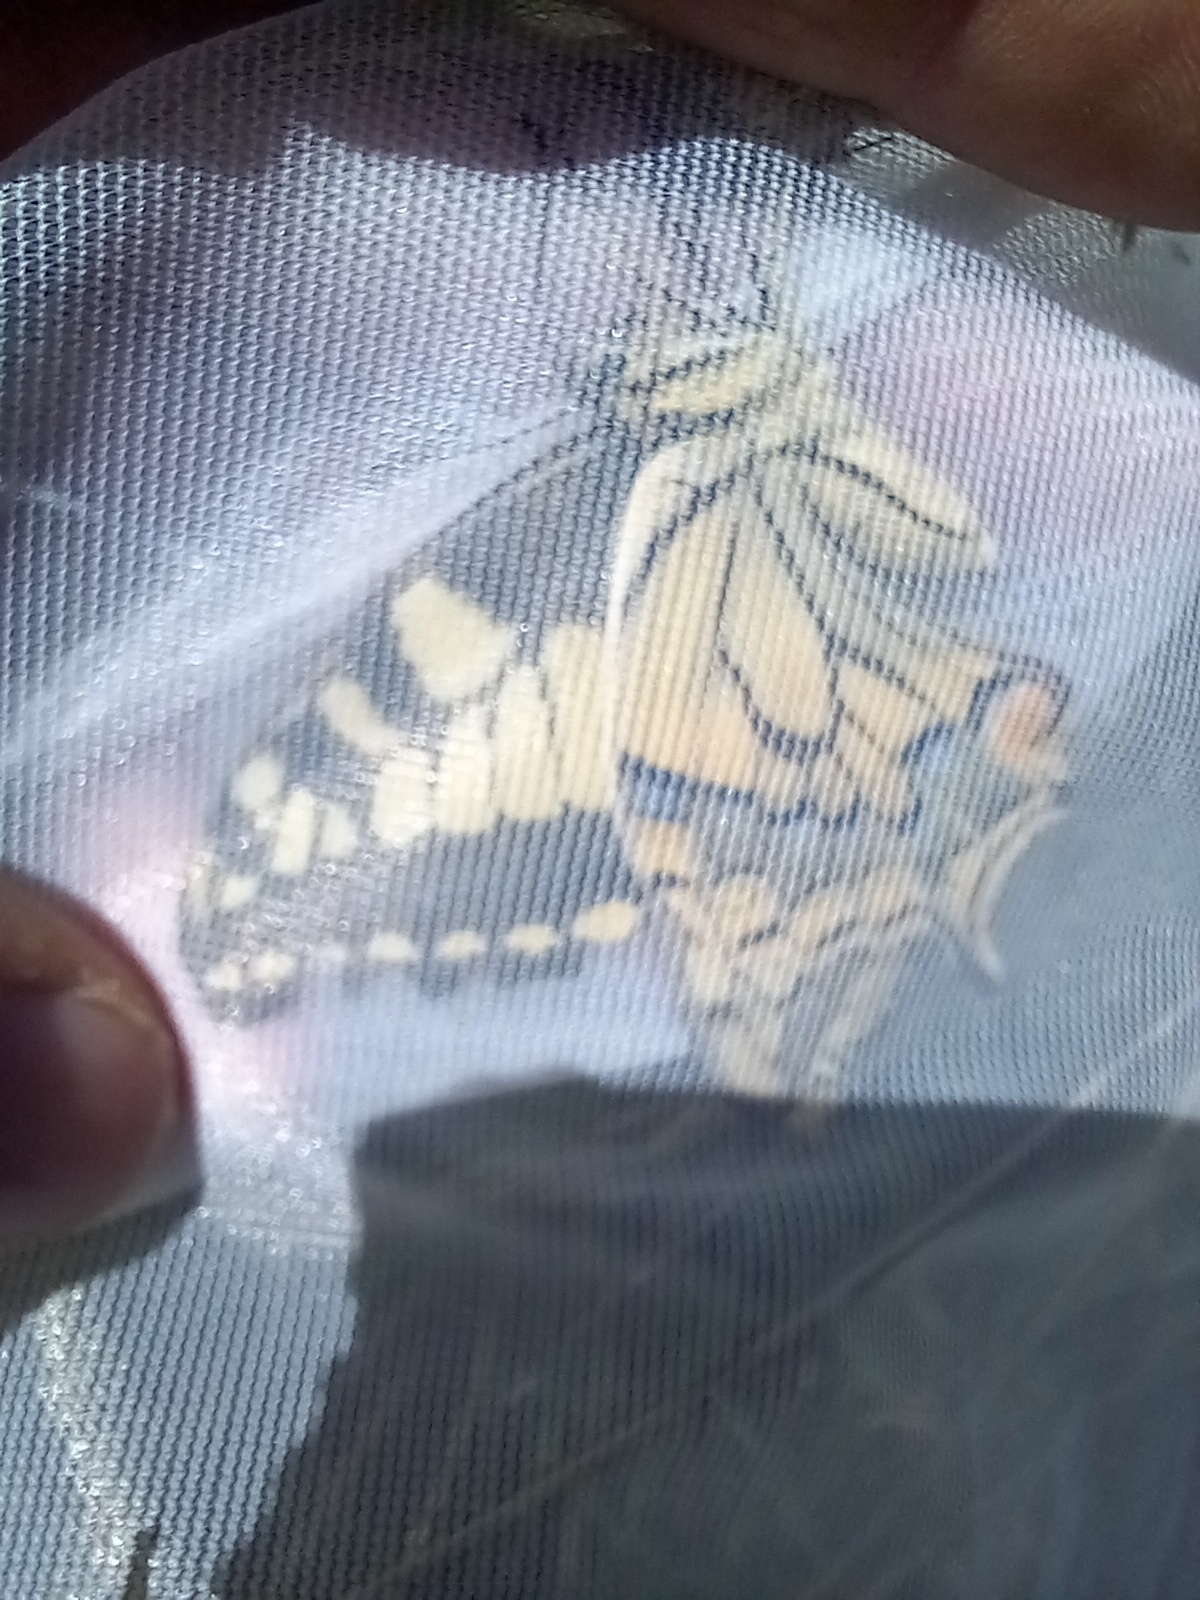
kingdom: Animalia
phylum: Arthropoda
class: Insecta
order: Lepidoptera
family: Papilionidae
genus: Papilio
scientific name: Papilio machaon
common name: Swallowtail
